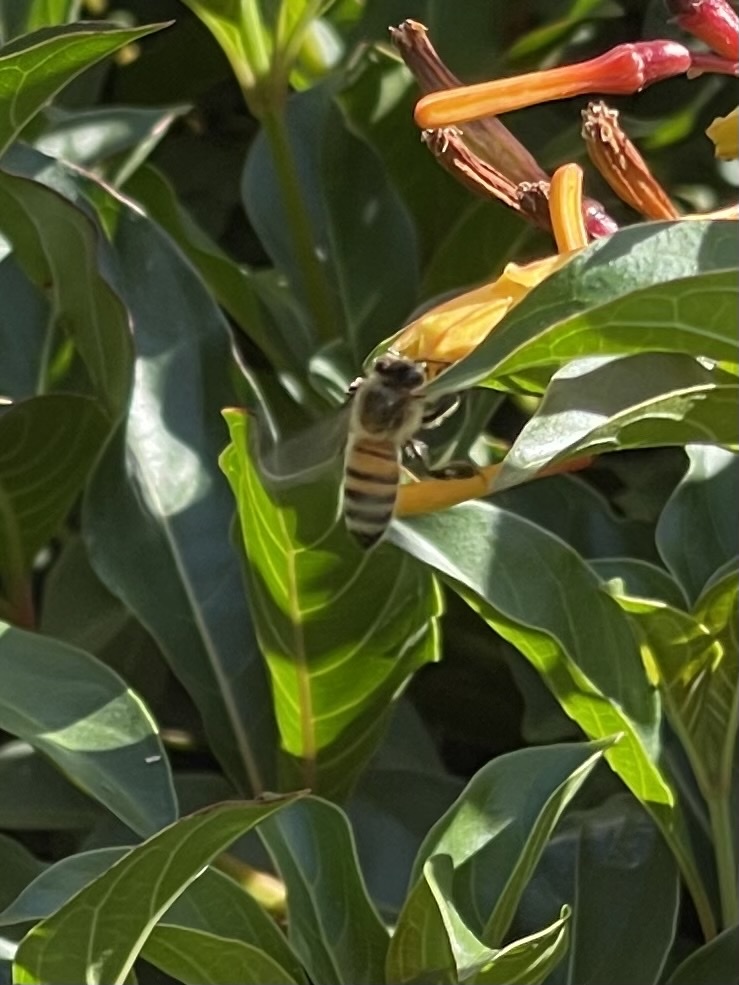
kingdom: Animalia
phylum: Arthropoda
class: Insecta
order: Hymenoptera
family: Apidae
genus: Apis
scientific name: Apis mellifera
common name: Honey bee
